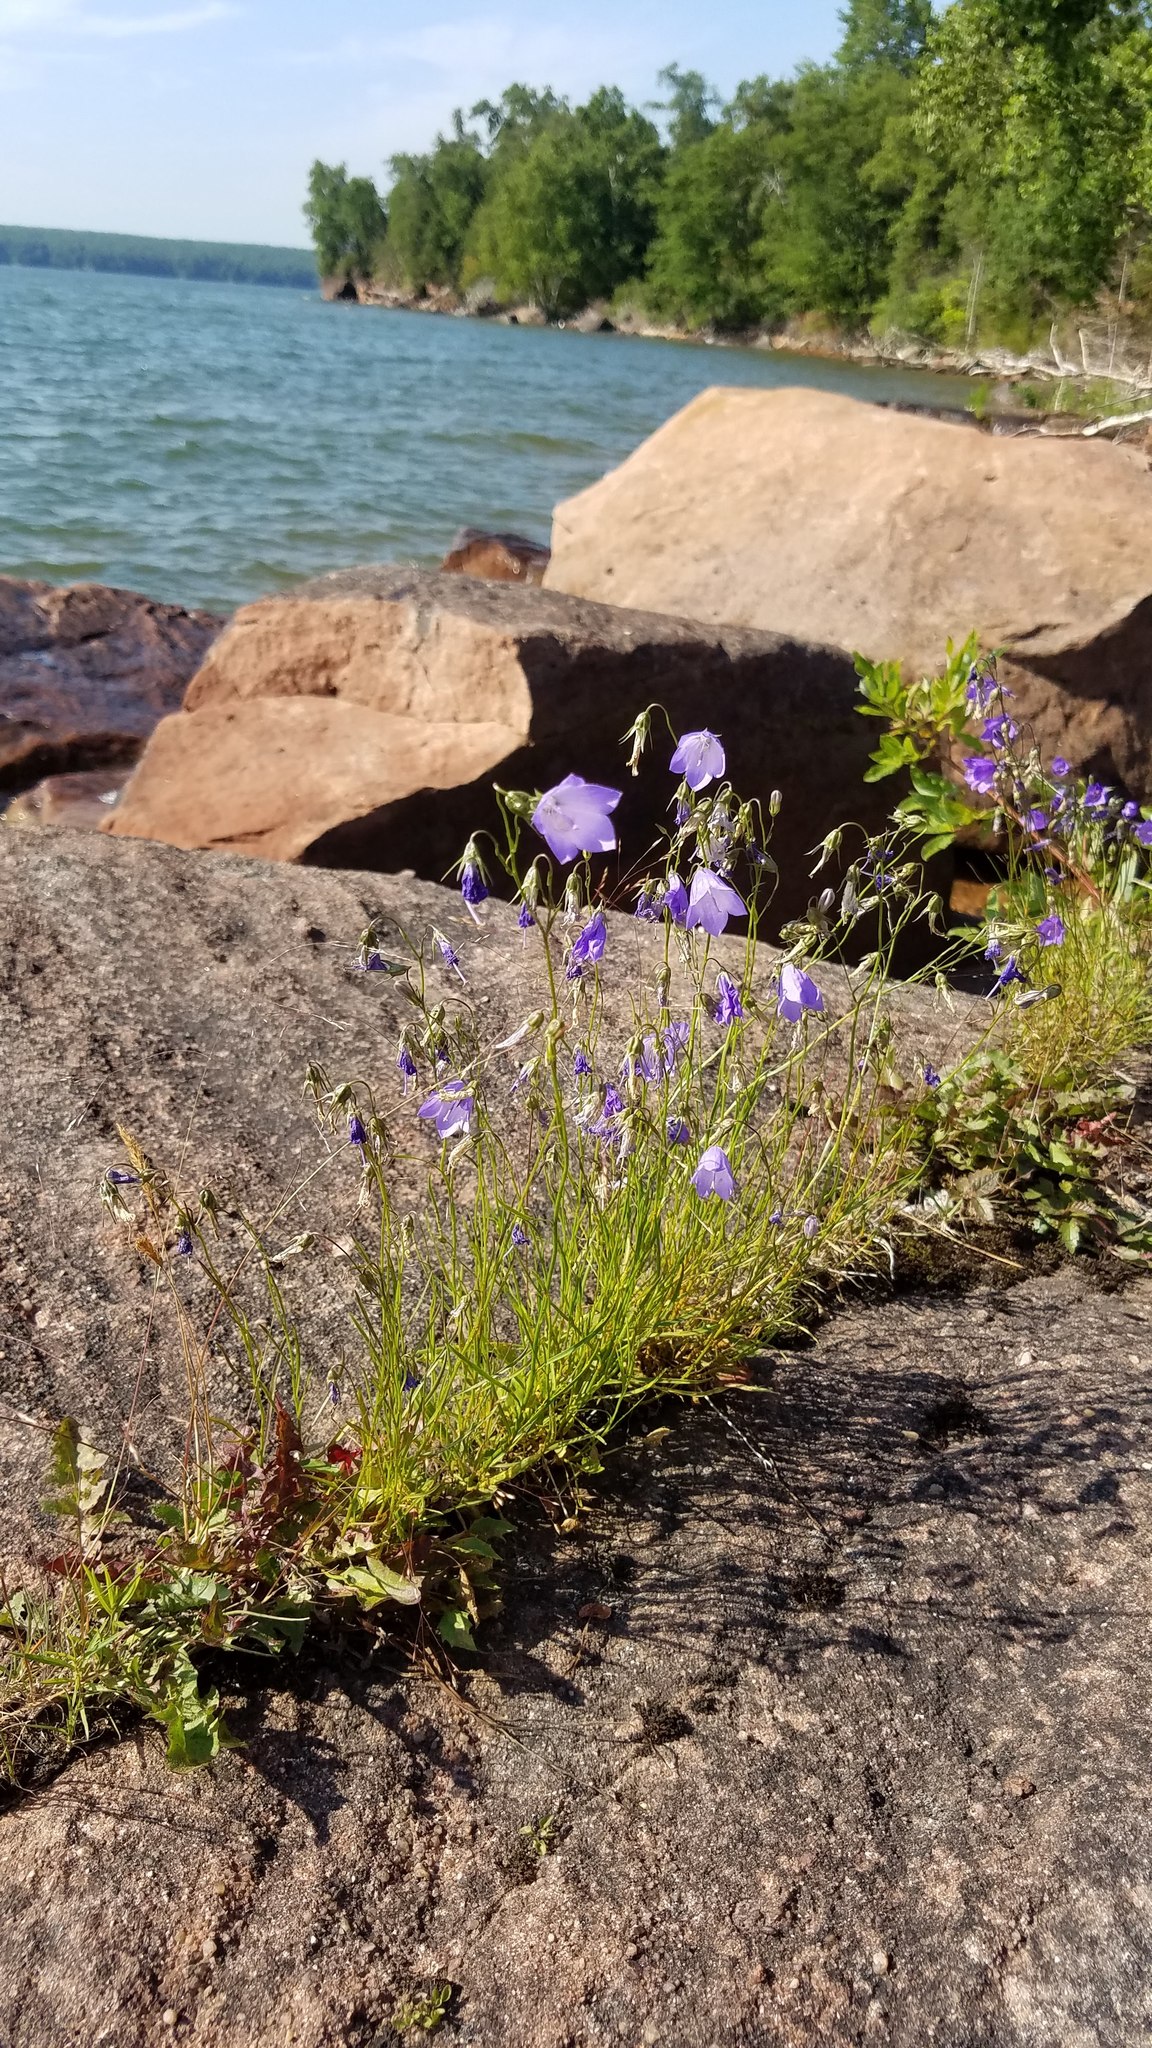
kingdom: Plantae
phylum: Tracheophyta
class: Magnoliopsida
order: Asterales
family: Campanulaceae
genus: Campanula
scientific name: Campanula intercedens
